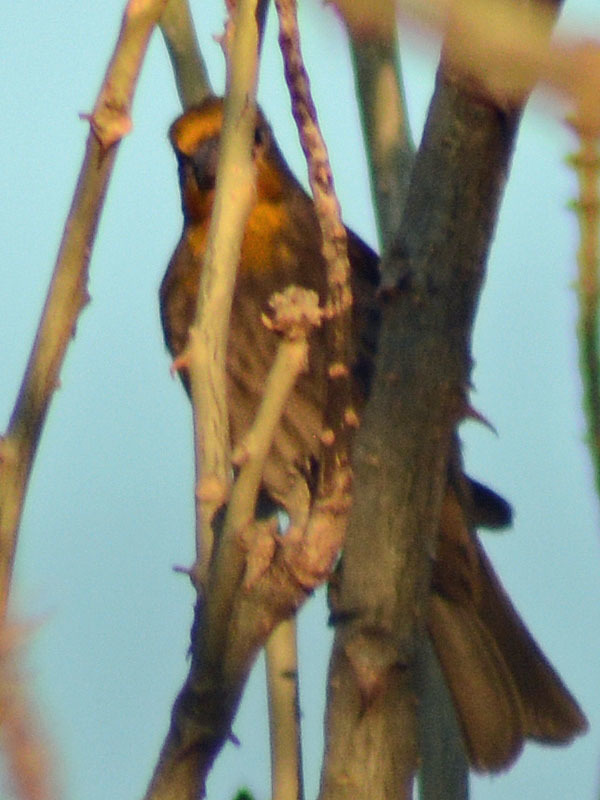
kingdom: Animalia
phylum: Chordata
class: Aves
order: Passeriformes
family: Fringillidae
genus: Haemorhous
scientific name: Haemorhous mexicanus
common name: House finch
